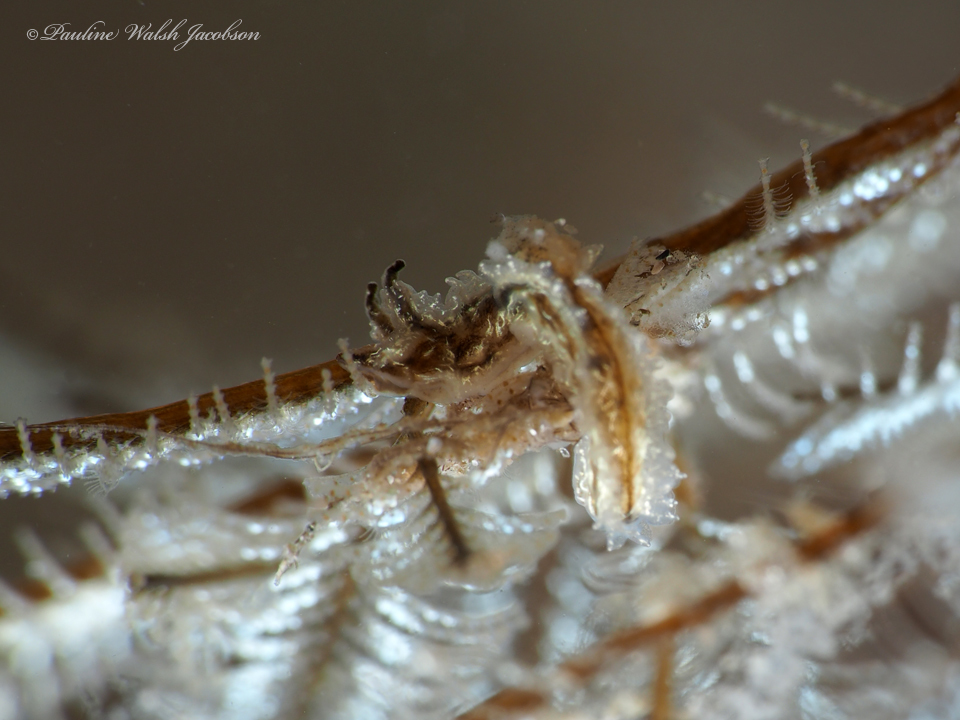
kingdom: Animalia
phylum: Mollusca
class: Gastropoda
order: Nudibranchia
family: Lomanotidae
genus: Lomanotus
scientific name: Lomanotus vermiformis
